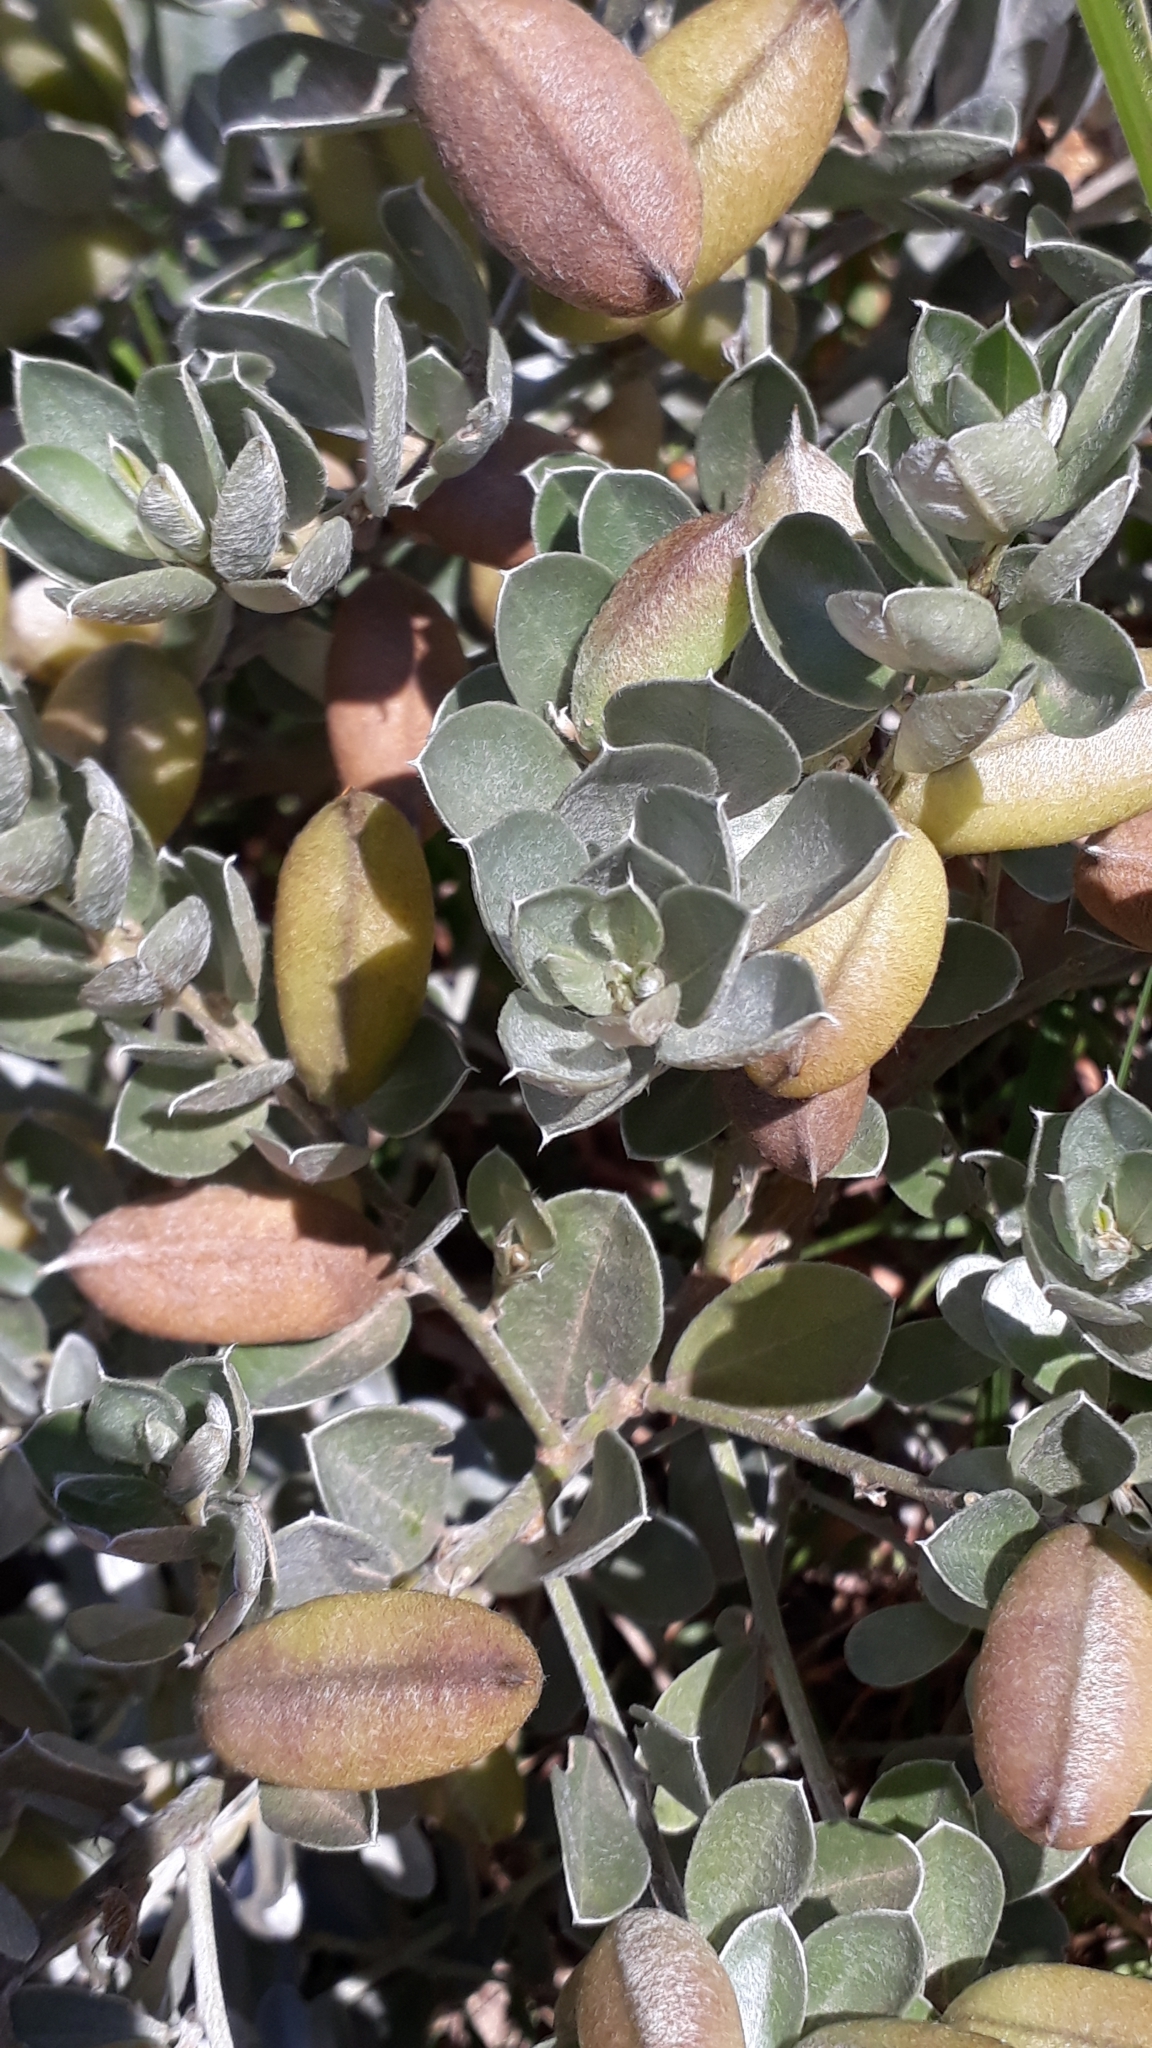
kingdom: Plantae
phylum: Tracheophyta
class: Magnoliopsida
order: Fabales
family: Fabaceae
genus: Podalyria
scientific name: Podalyria sericea
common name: Silver podalyria
